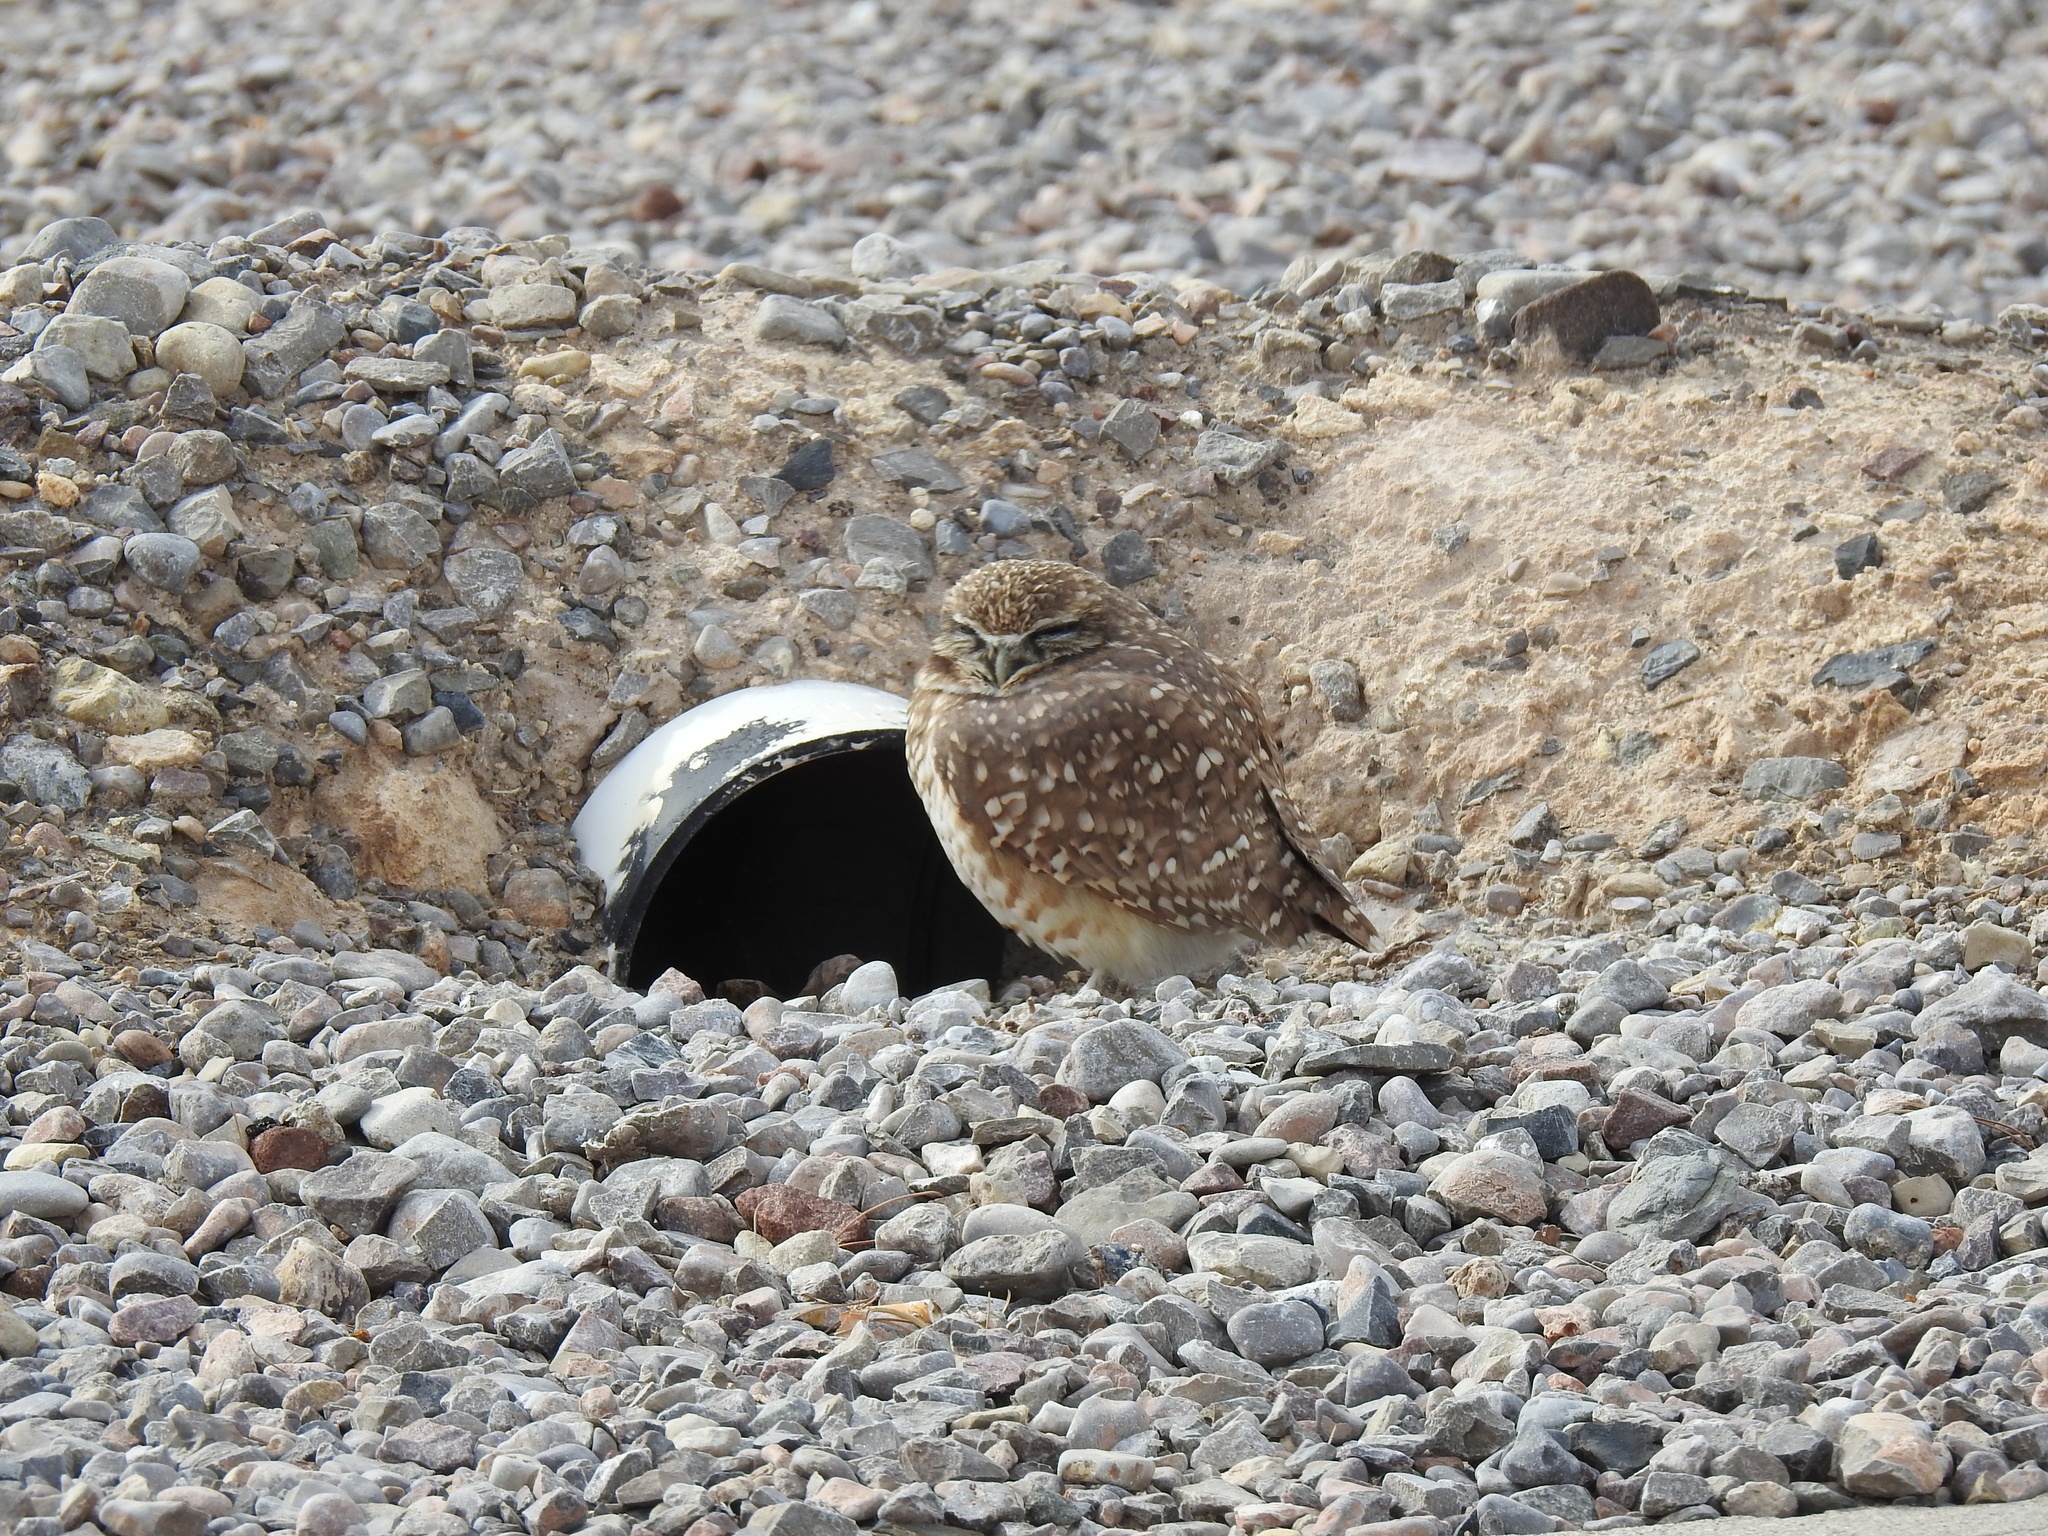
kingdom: Animalia
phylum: Chordata
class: Aves
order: Strigiformes
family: Strigidae
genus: Athene
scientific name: Athene cunicularia
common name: Burrowing owl
